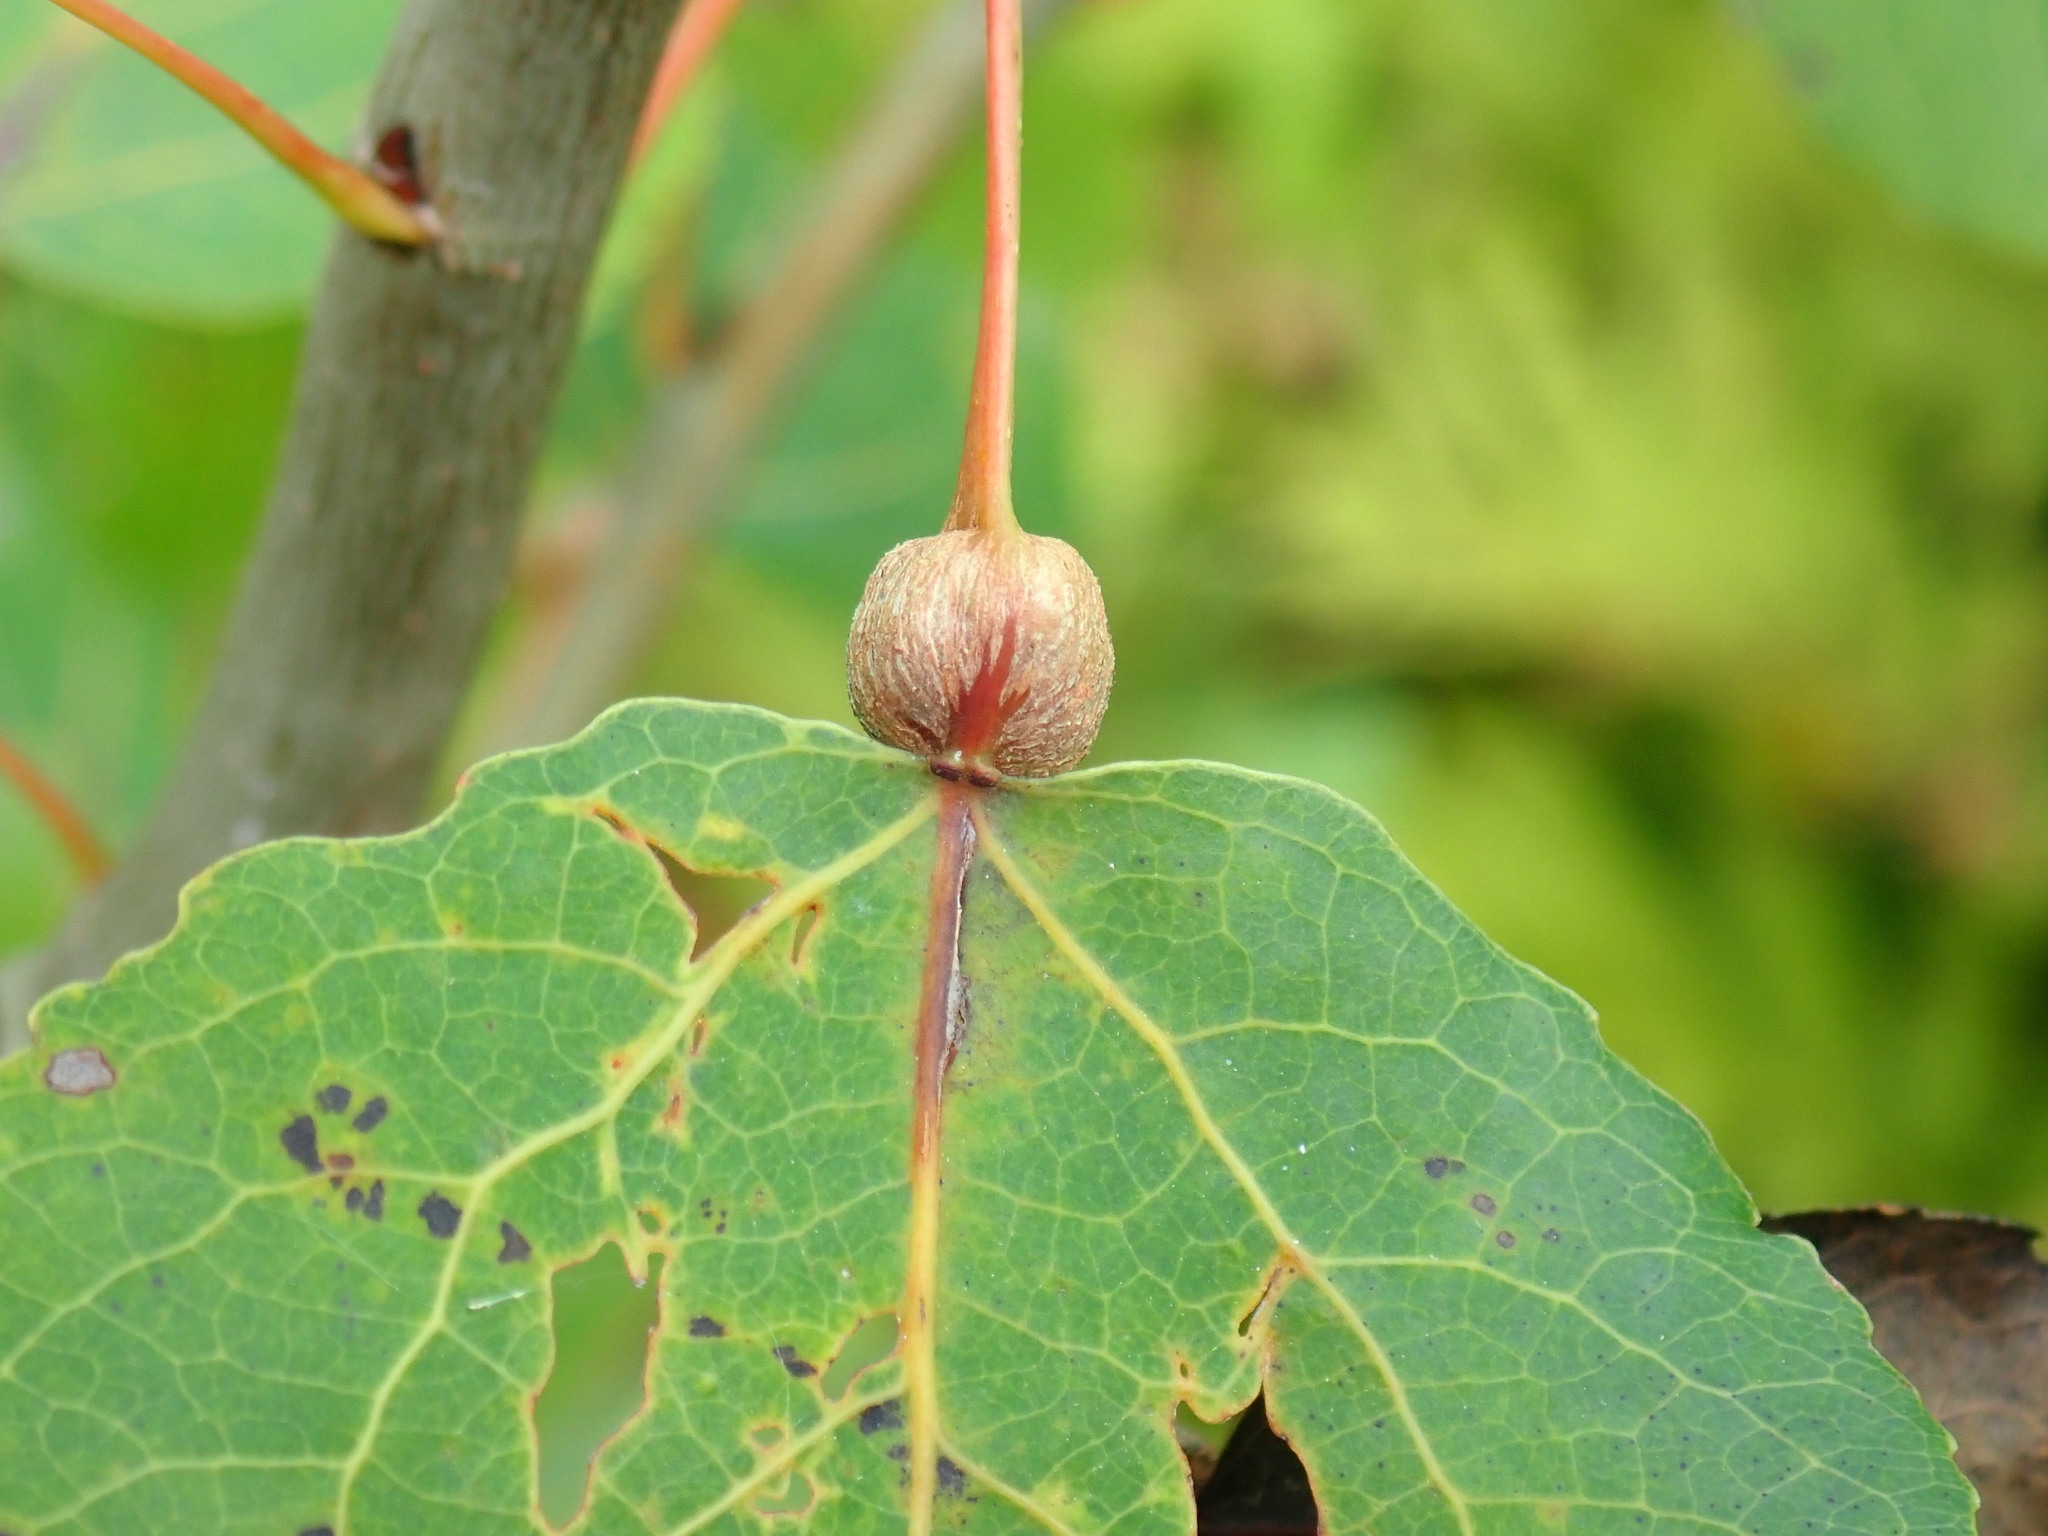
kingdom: Animalia
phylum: Arthropoda
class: Insecta
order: Lepidoptera
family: Nepticulidae
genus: Ectoedemia
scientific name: Ectoedemia populella
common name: Aspen petiole gall moth
